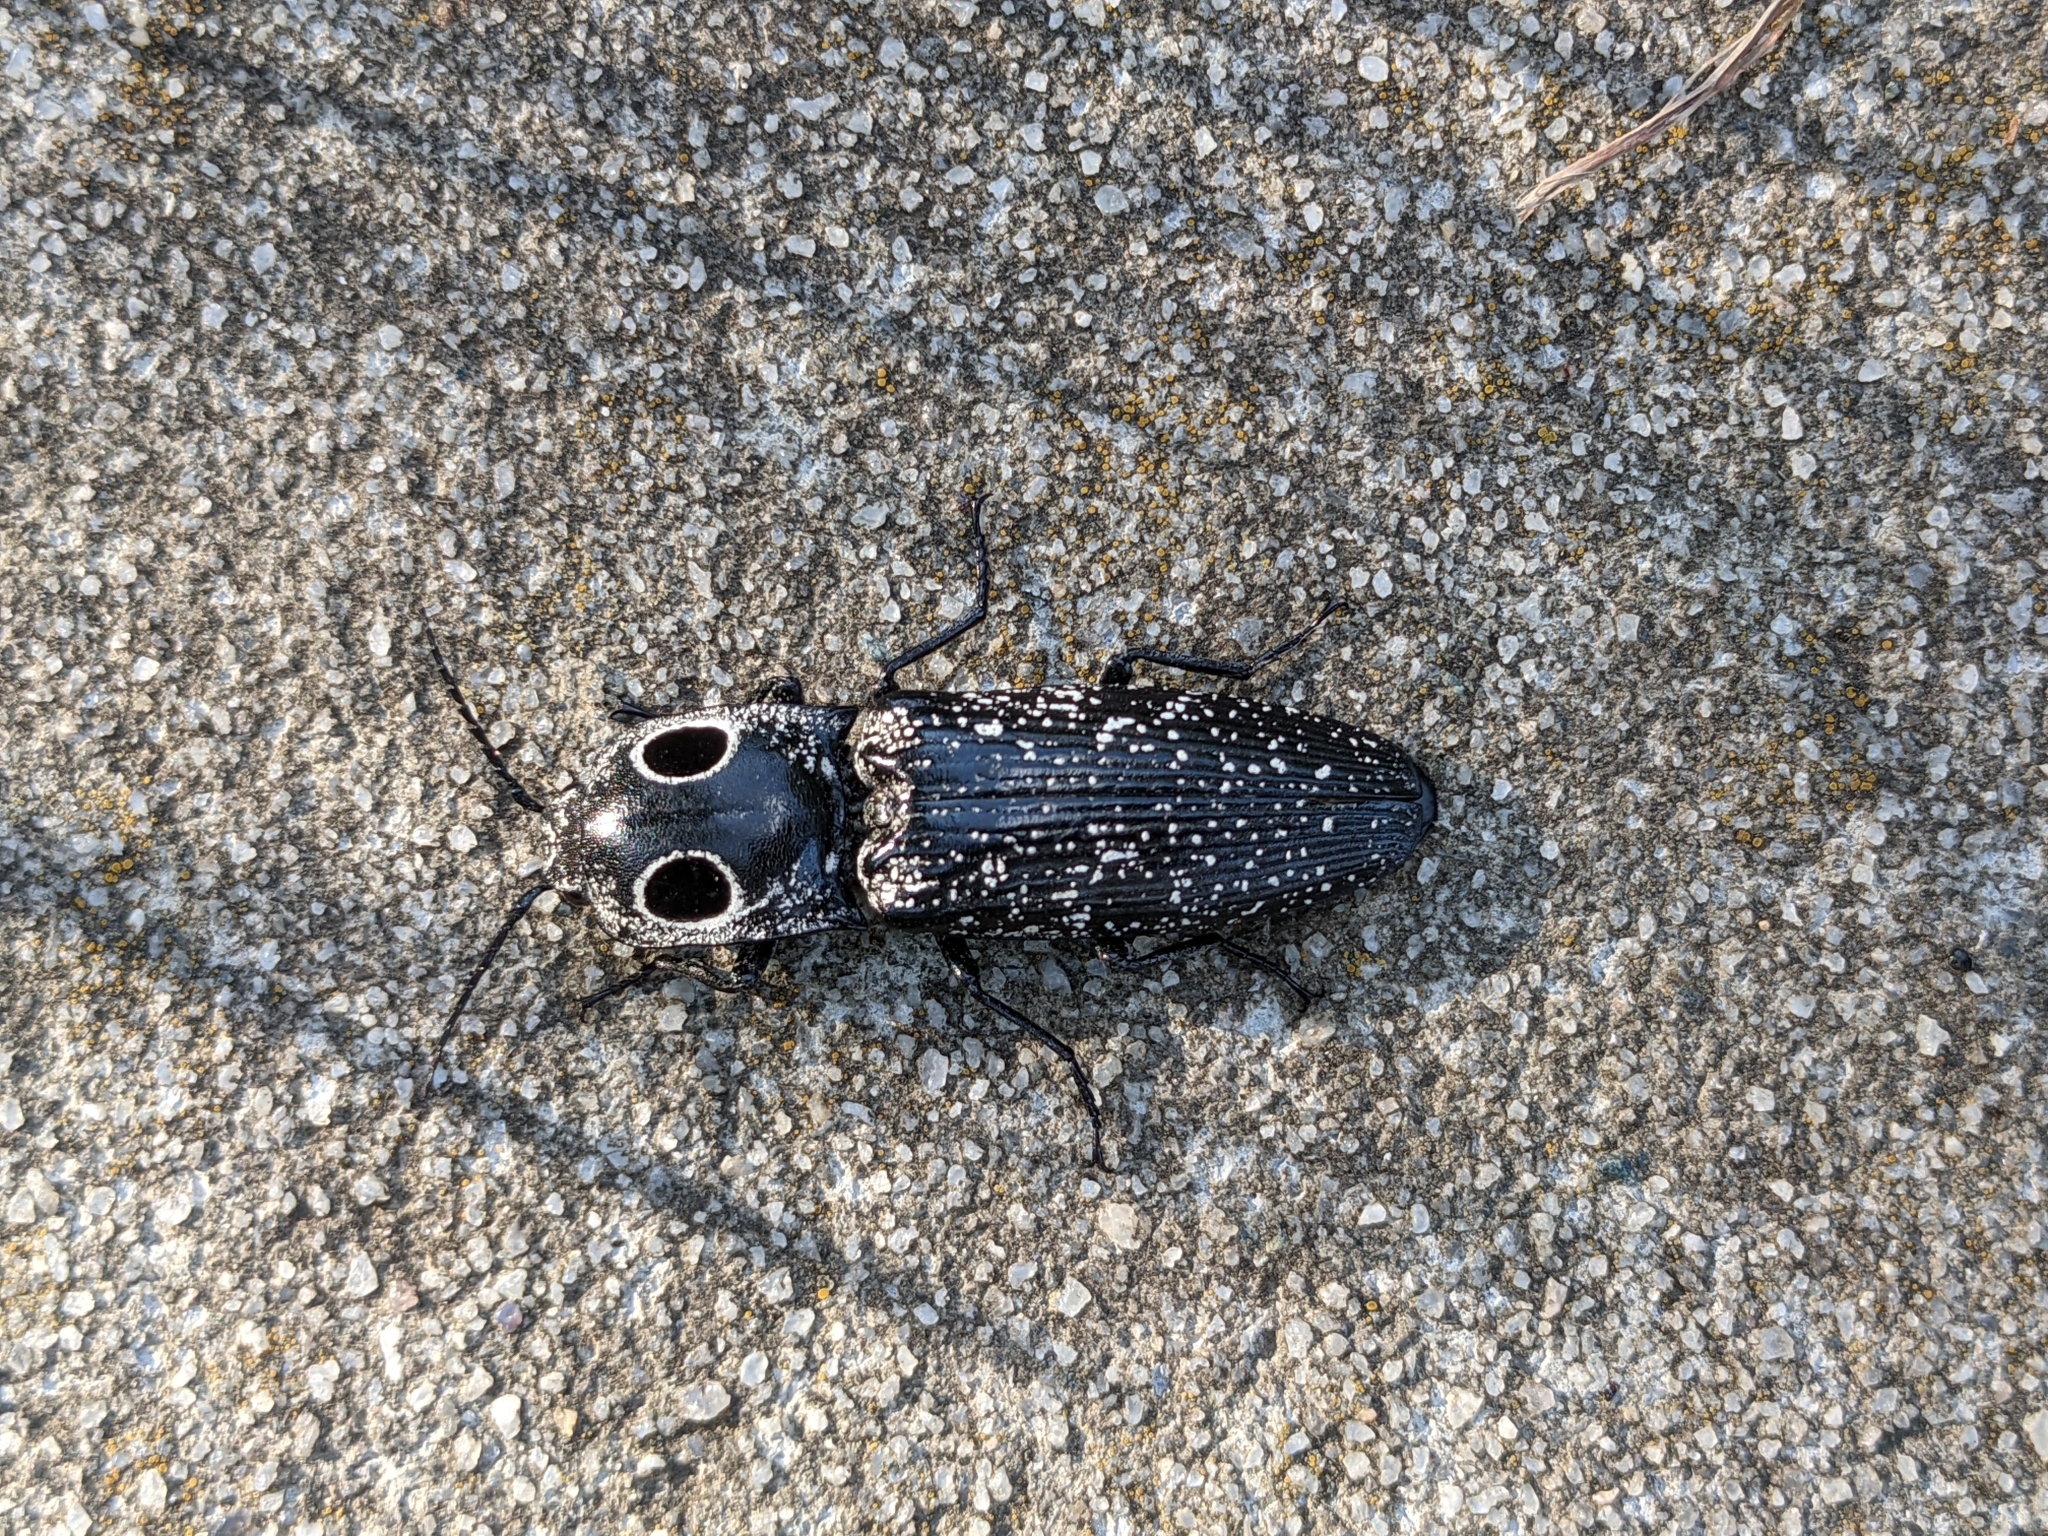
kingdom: Animalia
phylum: Arthropoda
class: Insecta
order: Coleoptera
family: Elateridae
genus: Alaus
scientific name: Alaus oculatus
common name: Eastern eyed click beetle
